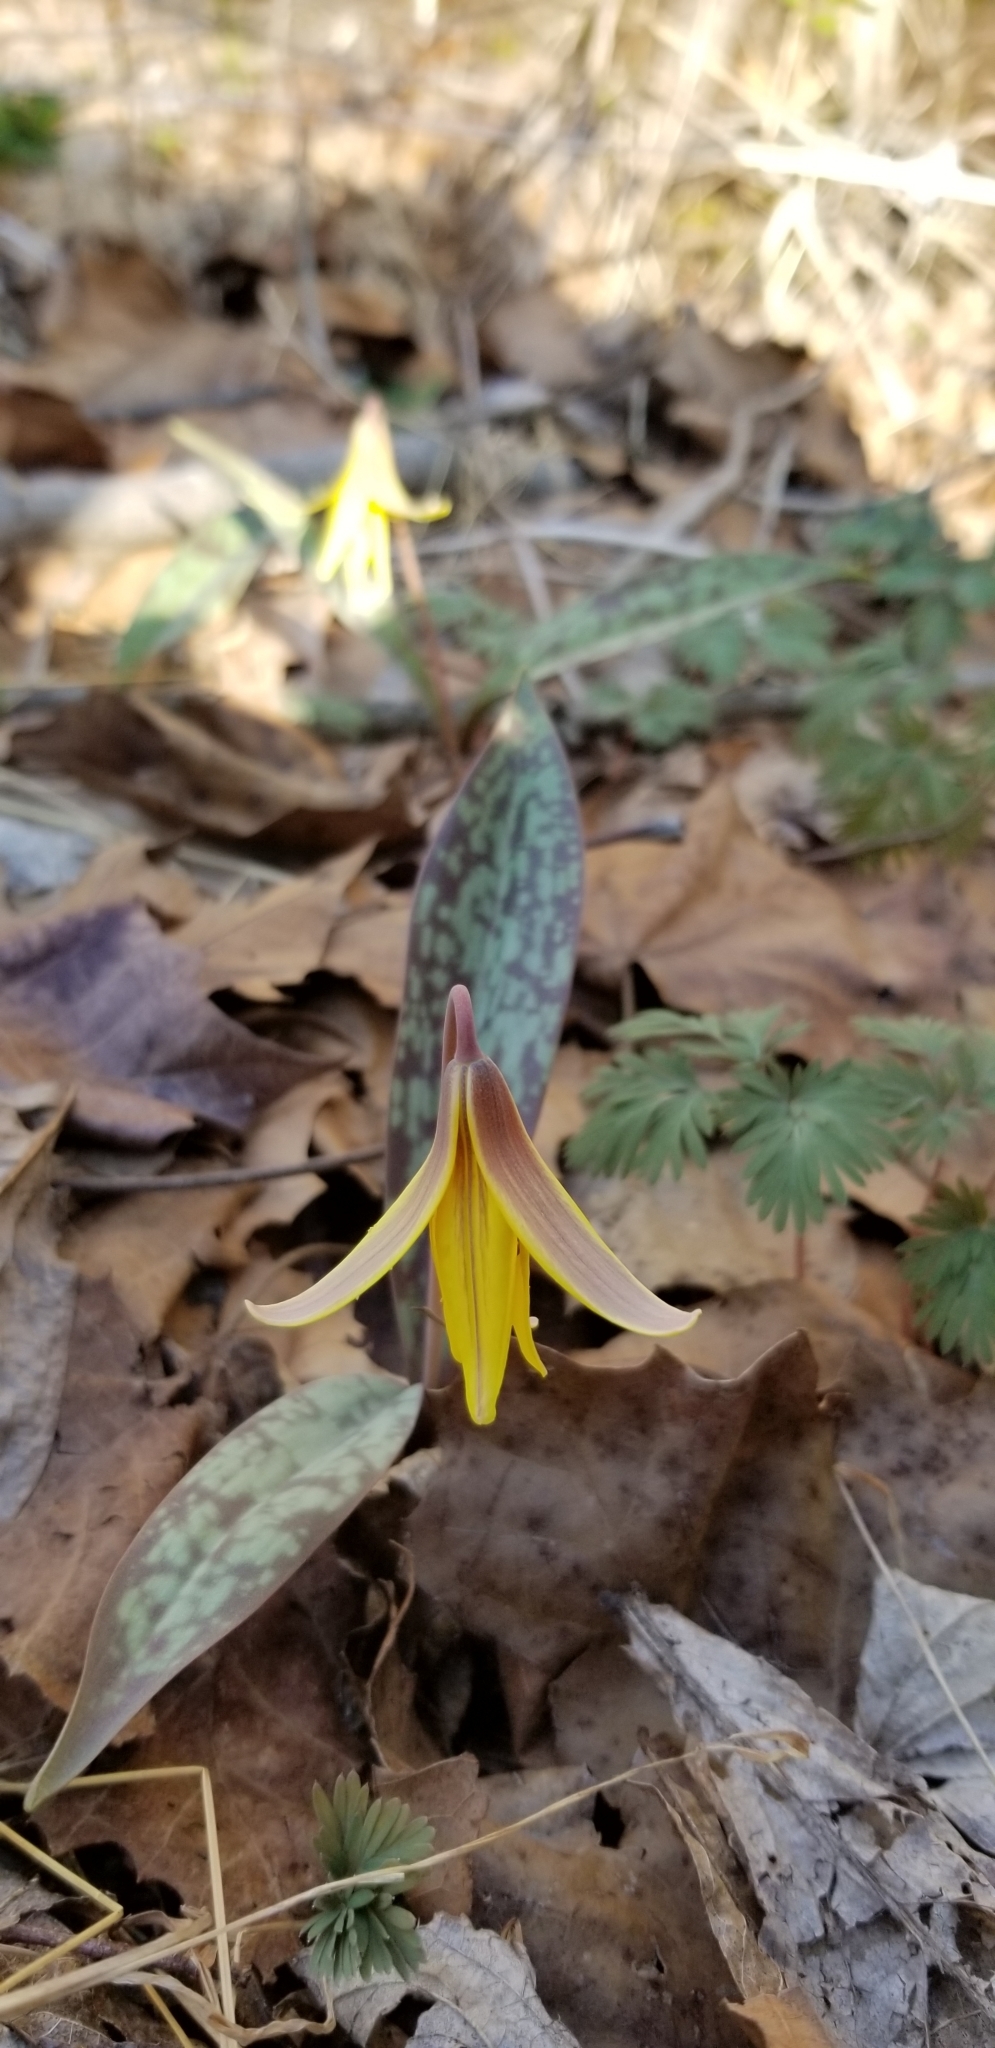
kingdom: Plantae
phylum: Tracheophyta
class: Liliopsida
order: Liliales
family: Liliaceae
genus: Erythronium
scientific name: Erythronium americanum
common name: Yellow adder's-tongue
